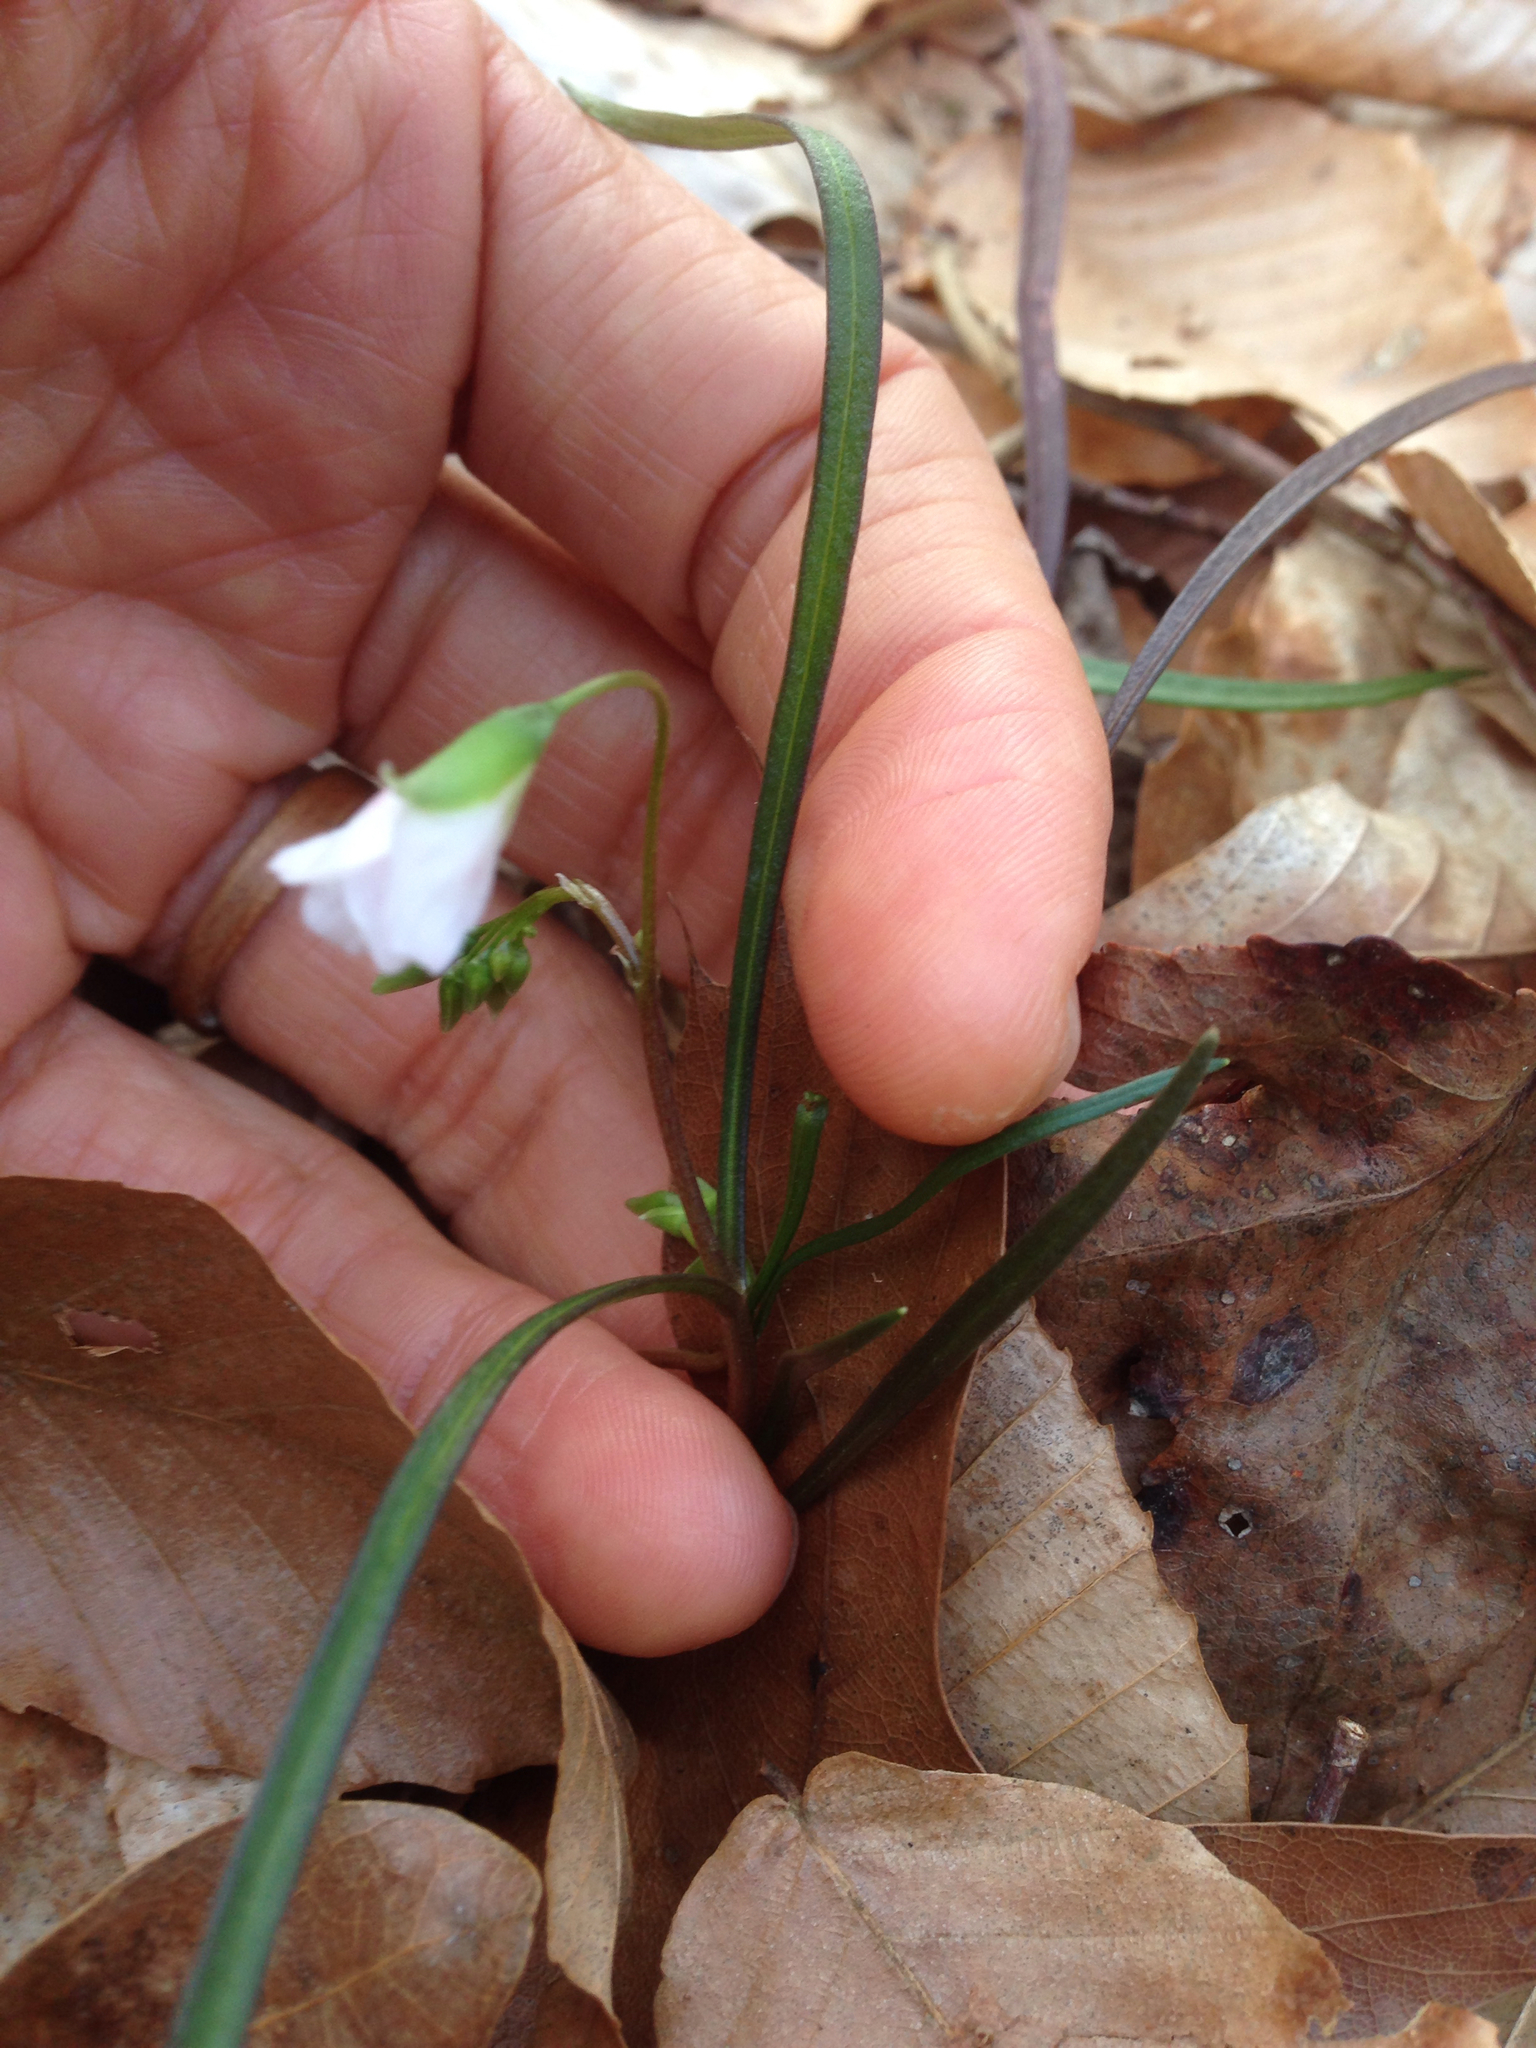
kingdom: Plantae
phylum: Tracheophyta
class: Magnoliopsida
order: Caryophyllales
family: Montiaceae
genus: Claytonia
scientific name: Claytonia virginica
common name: Virginia springbeauty
